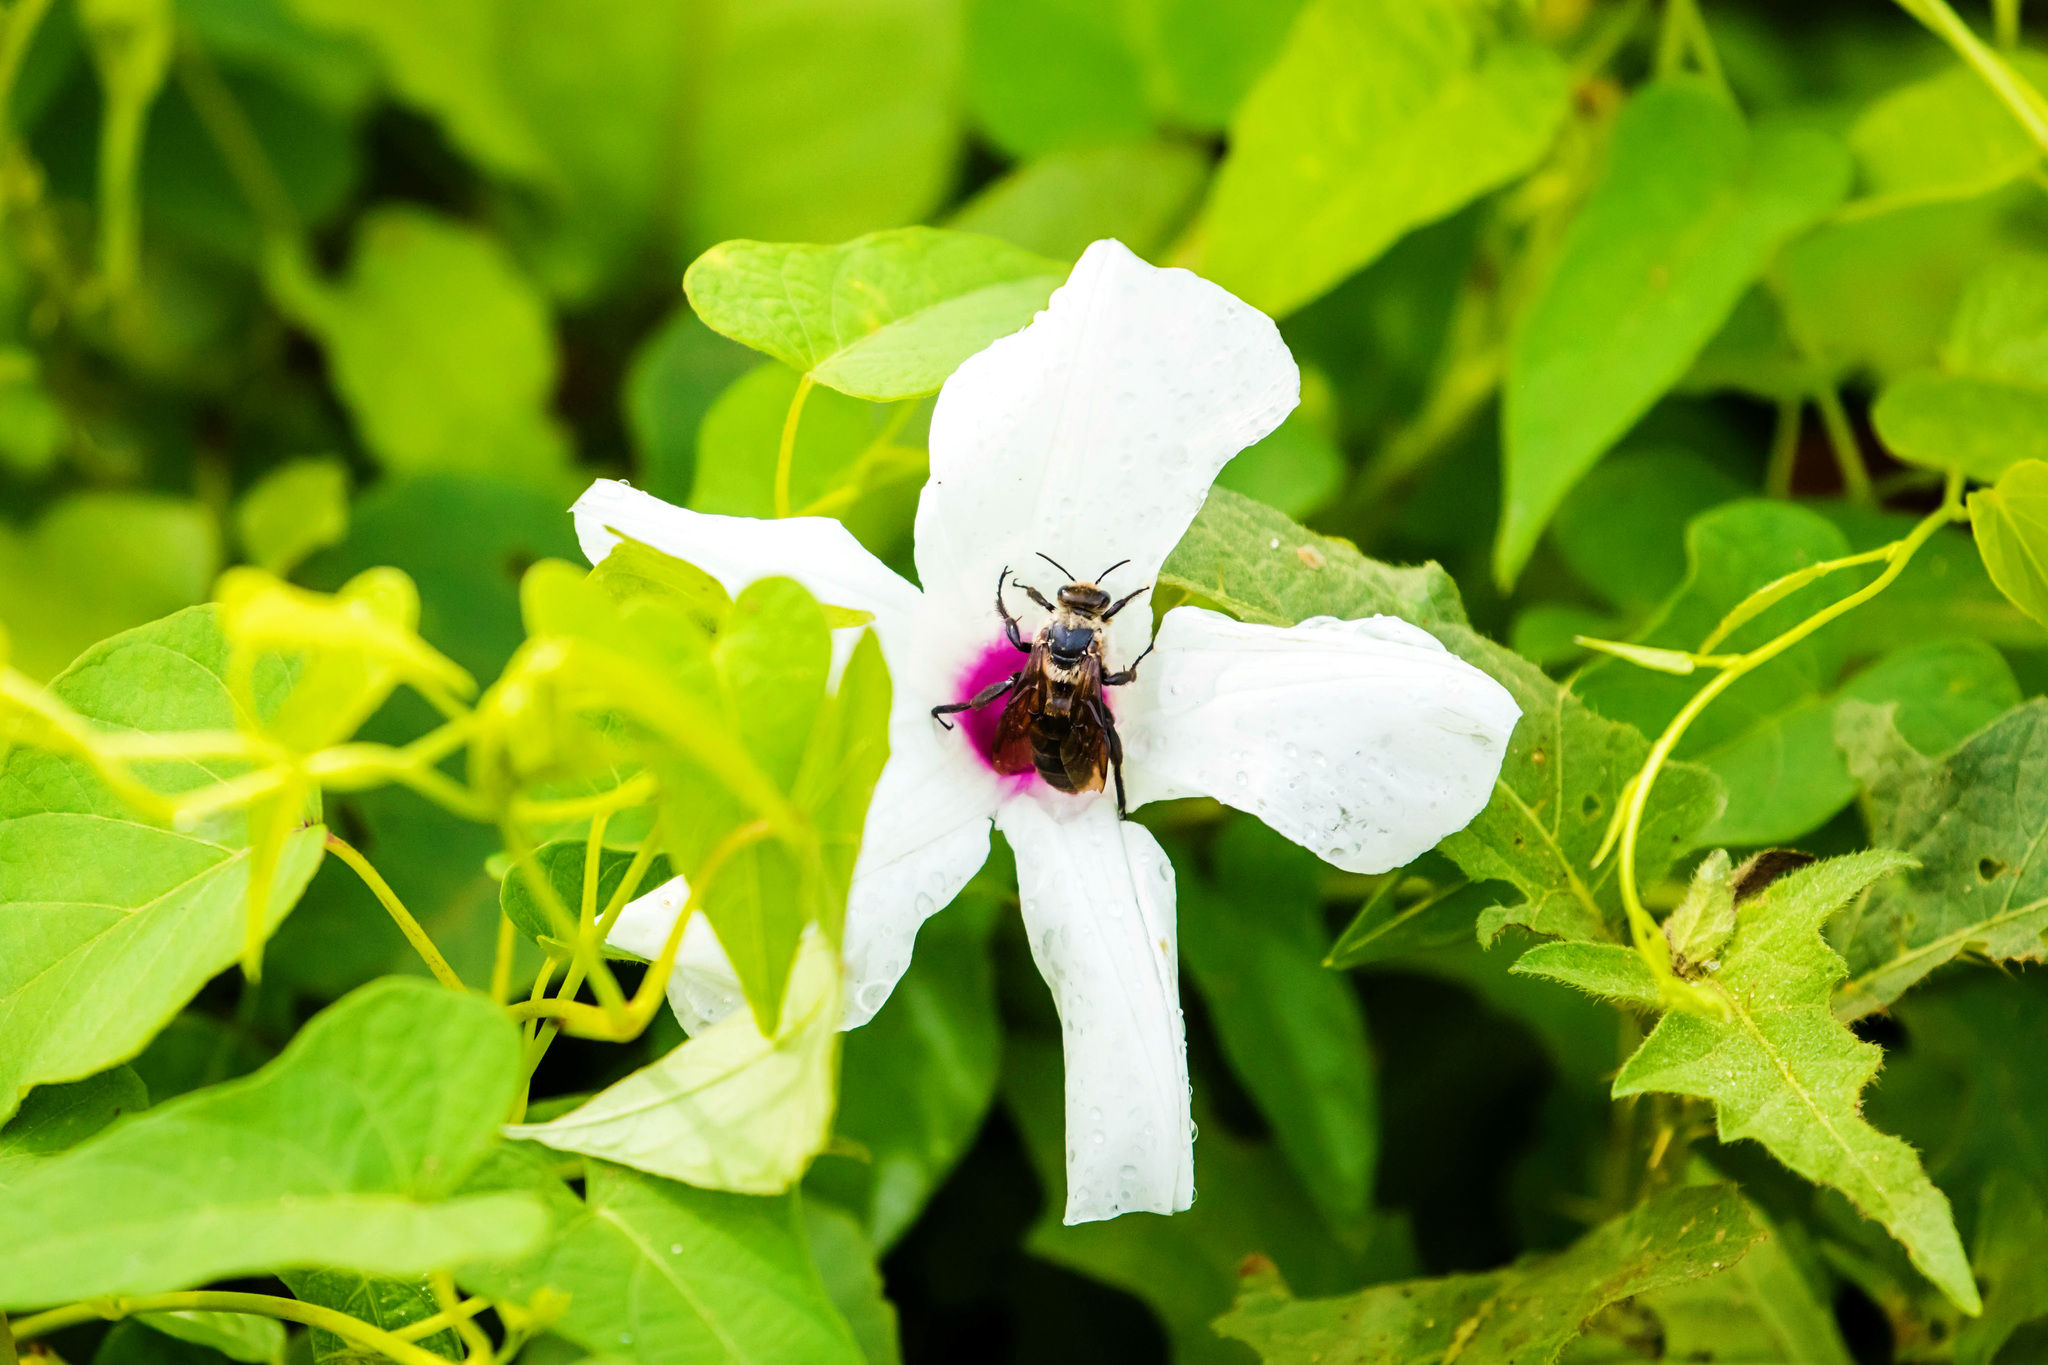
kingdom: Animalia
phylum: Arthropoda
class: Insecta
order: Hymenoptera
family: Apidae
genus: Ptilothrix
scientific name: Ptilothrix bombiformis
